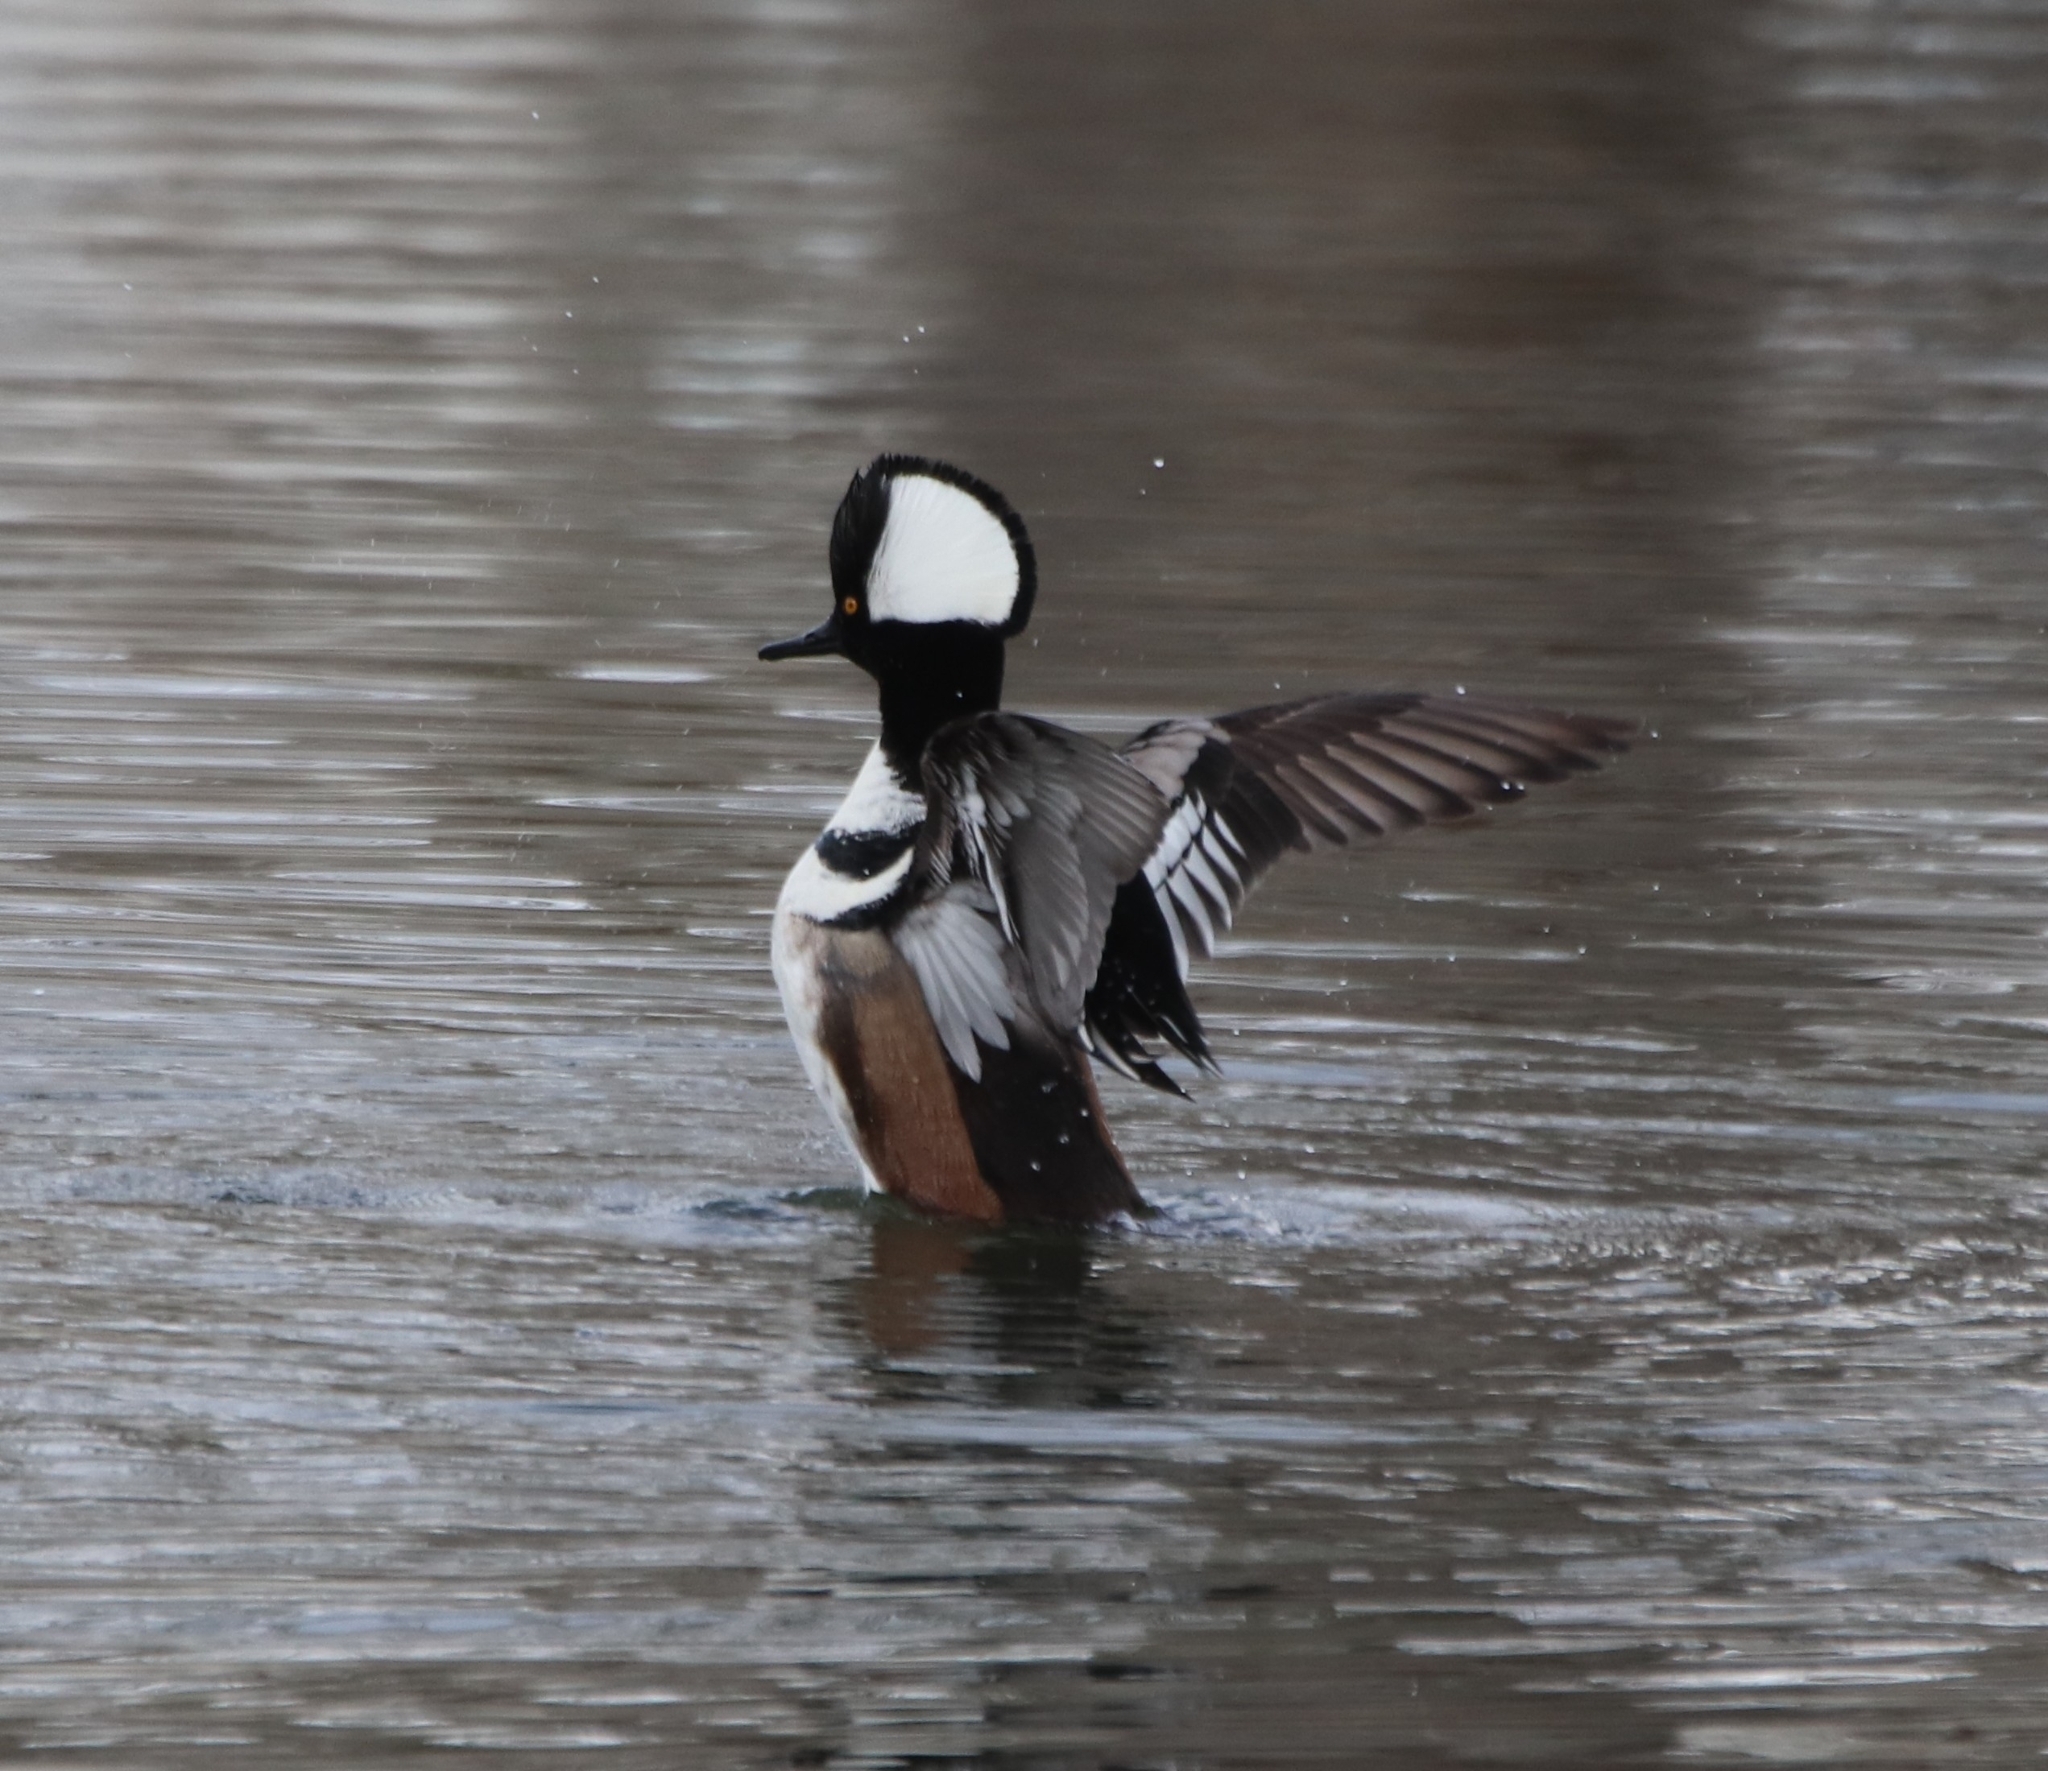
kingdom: Animalia
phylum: Chordata
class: Aves
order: Anseriformes
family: Anatidae
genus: Lophodytes
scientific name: Lophodytes cucullatus
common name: Hooded merganser
